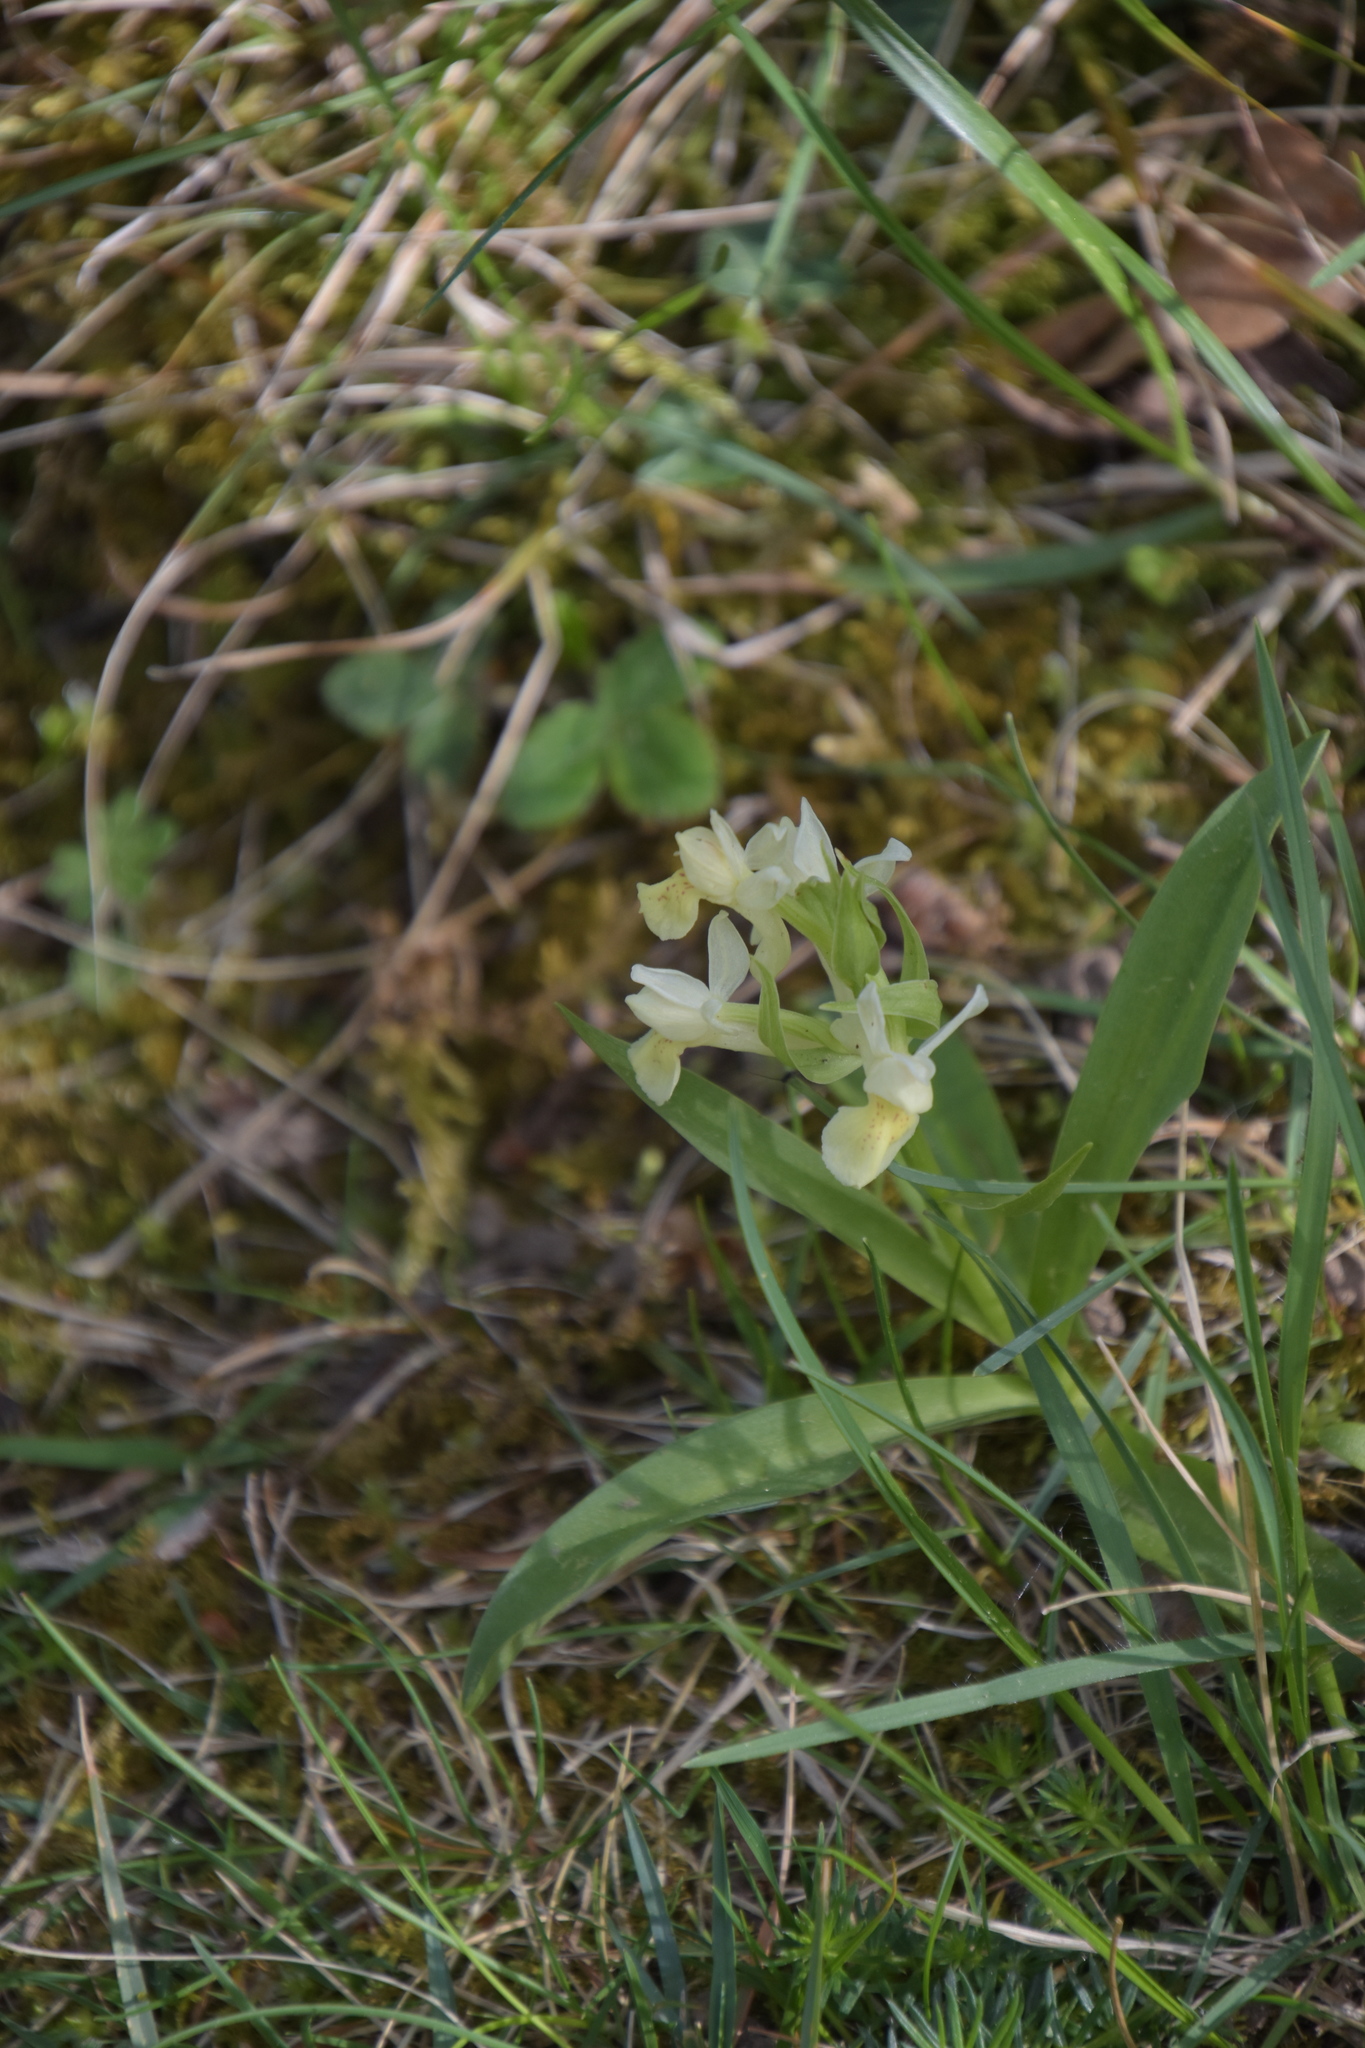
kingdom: Plantae
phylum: Tracheophyta
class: Liliopsida
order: Asparagales
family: Orchidaceae
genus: Dactylorhiza
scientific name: Dactylorhiza sambucina
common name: Elder-flowered orchid
